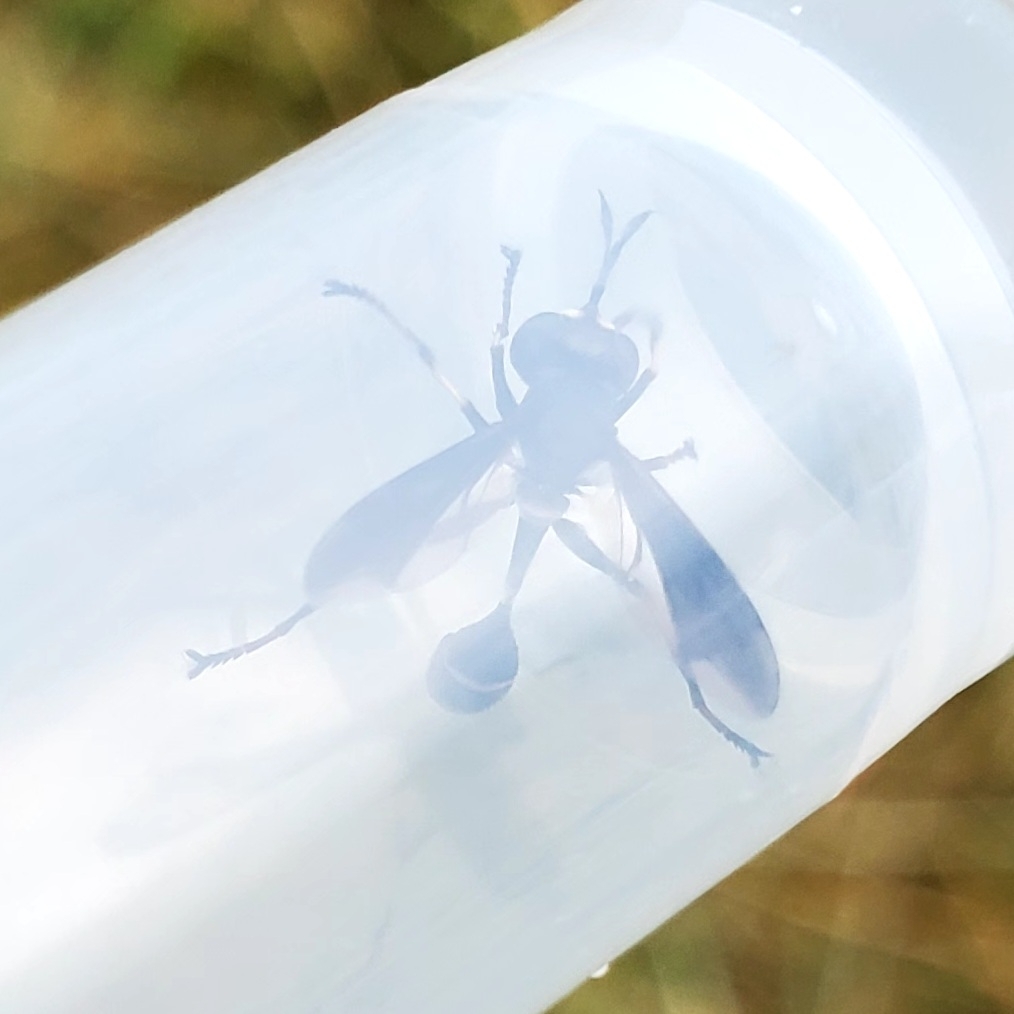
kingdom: Animalia
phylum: Arthropoda
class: Insecta
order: Diptera
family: Conopidae
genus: Physocephala
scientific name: Physocephala tibialis
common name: Common eastern physocephala
